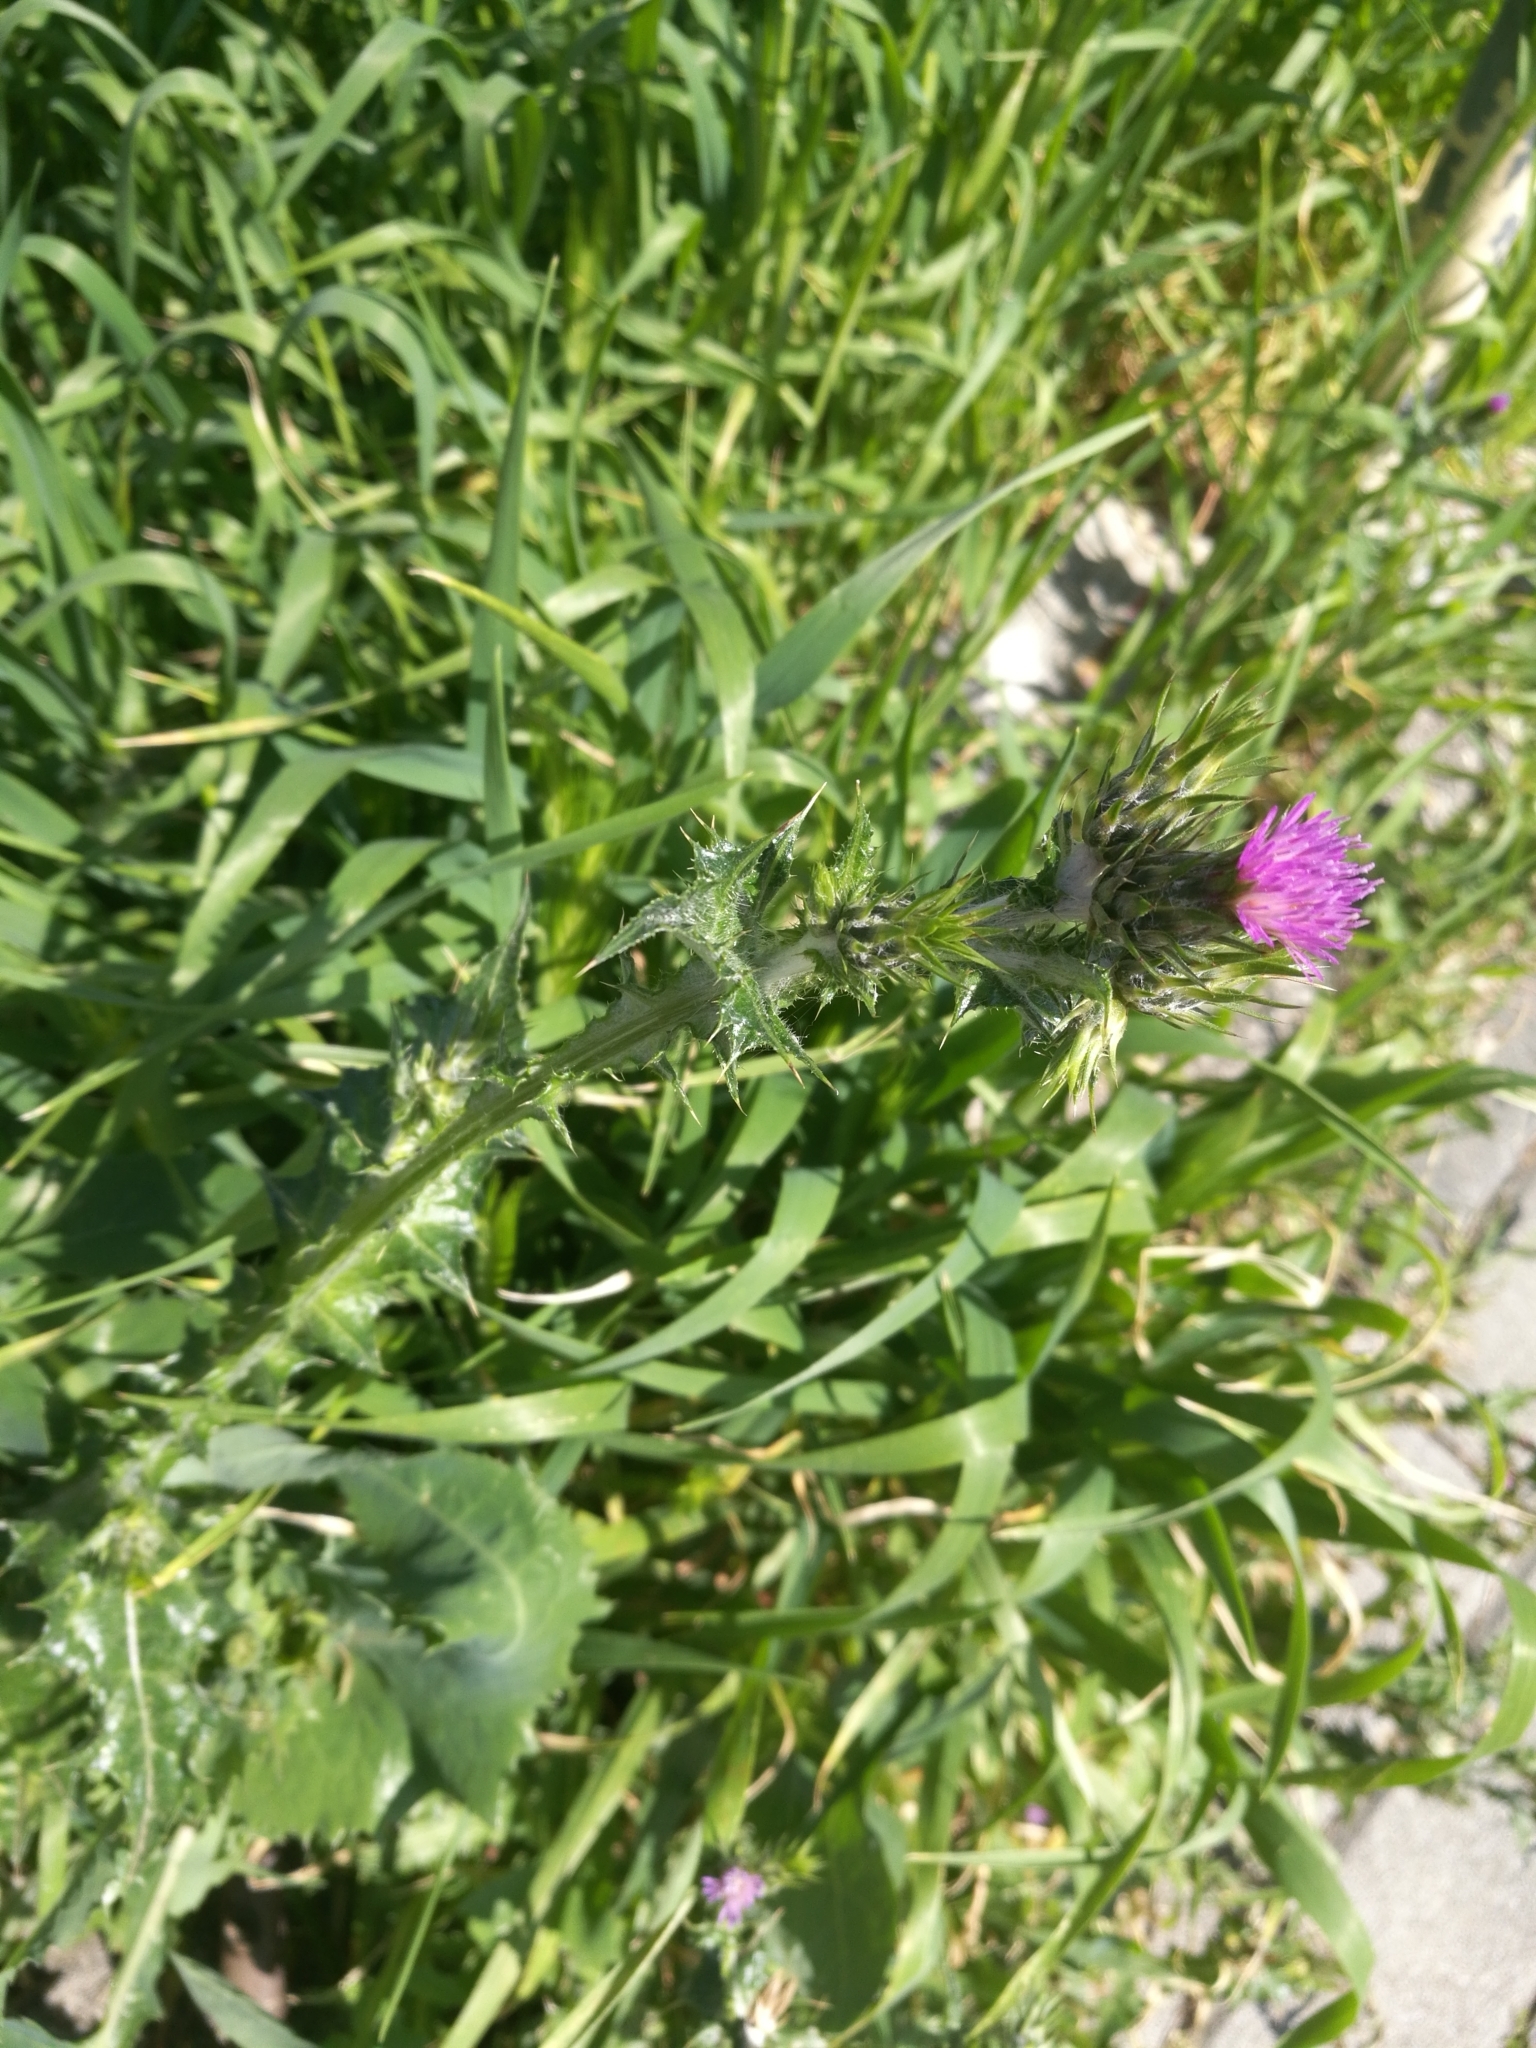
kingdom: Plantae
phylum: Tracheophyta
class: Magnoliopsida
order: Asterales
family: Asteraceae
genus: Carduus
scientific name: Carduus pycnocephalus
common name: Plymouth thistle
